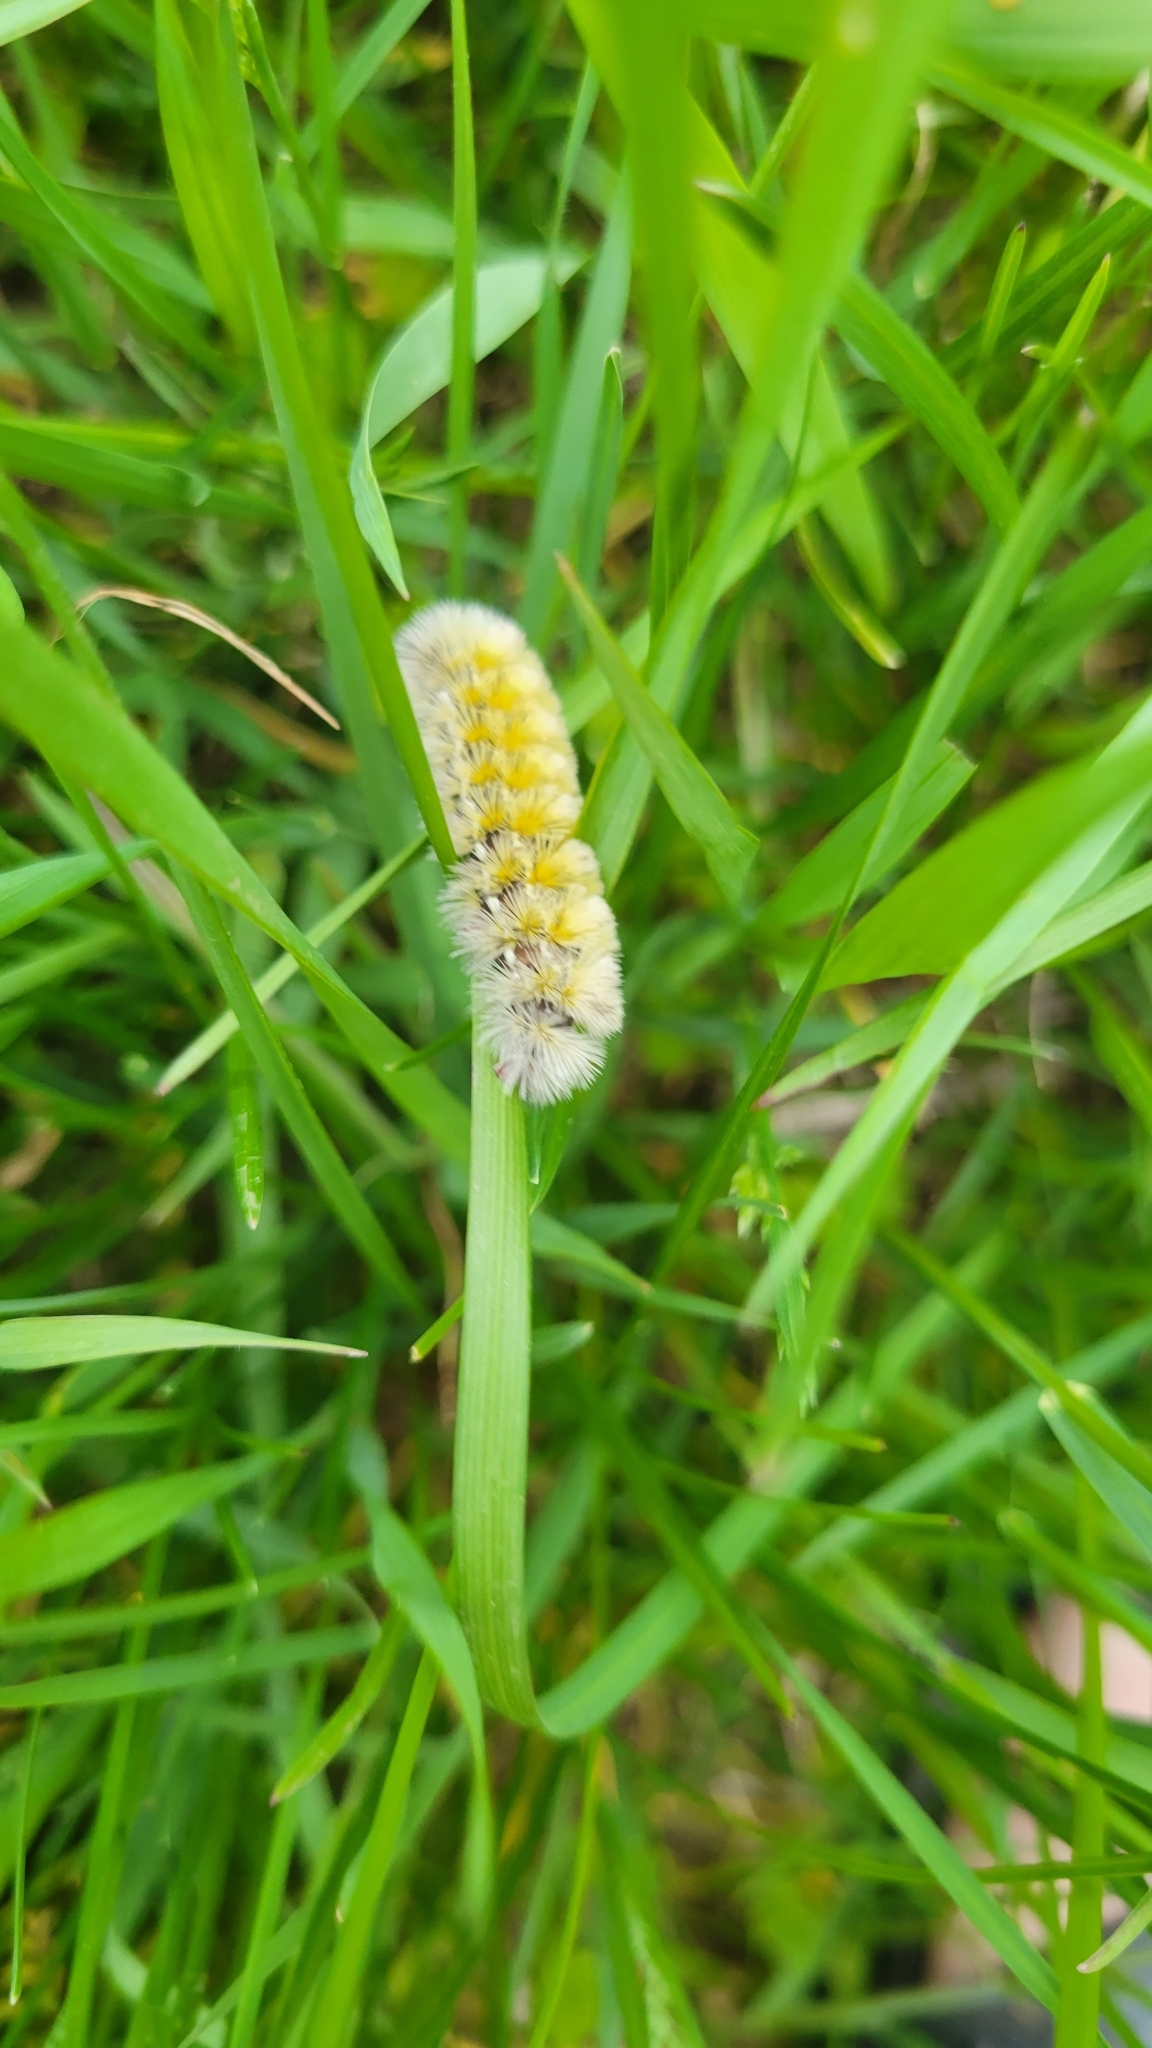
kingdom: Animalia
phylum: Arthropoda
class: Insecta
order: Lepidoptera
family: Erebidae
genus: Ctenucha
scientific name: Ctenucha virginica
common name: Virginia ctenucha moth
